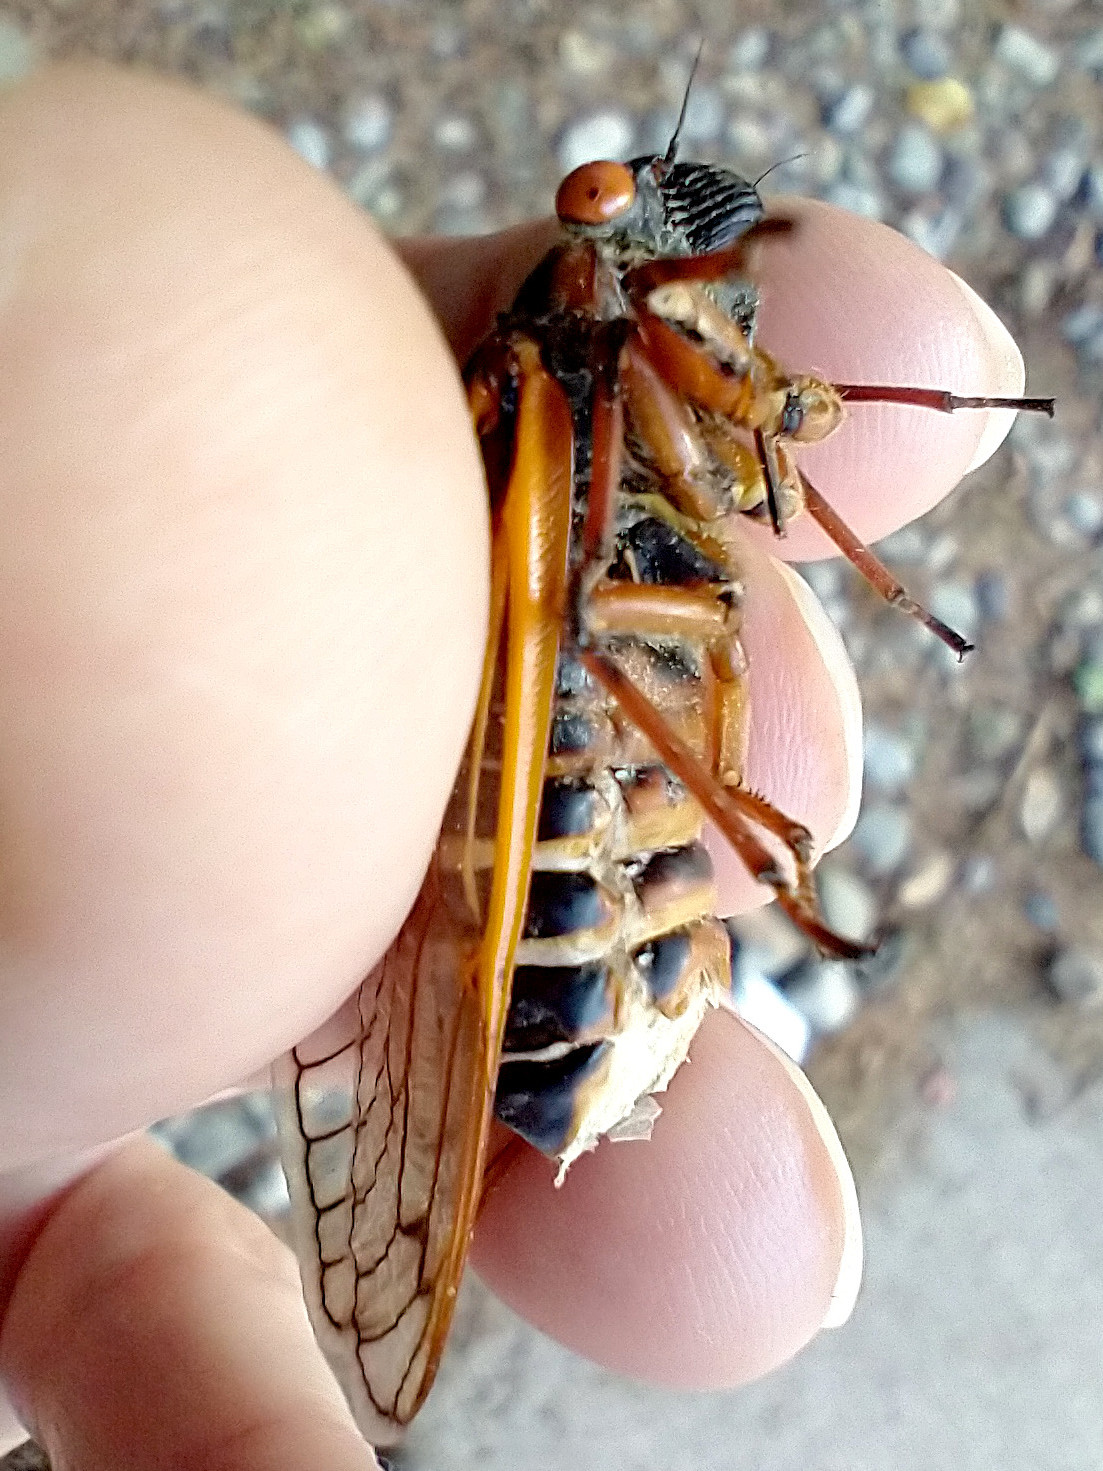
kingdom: Animalia
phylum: Arthropoda
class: Insecta
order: Hemiptera
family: Cicadidae
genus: Magicicada
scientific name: Magicicada septendecim
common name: Periodical cicada
